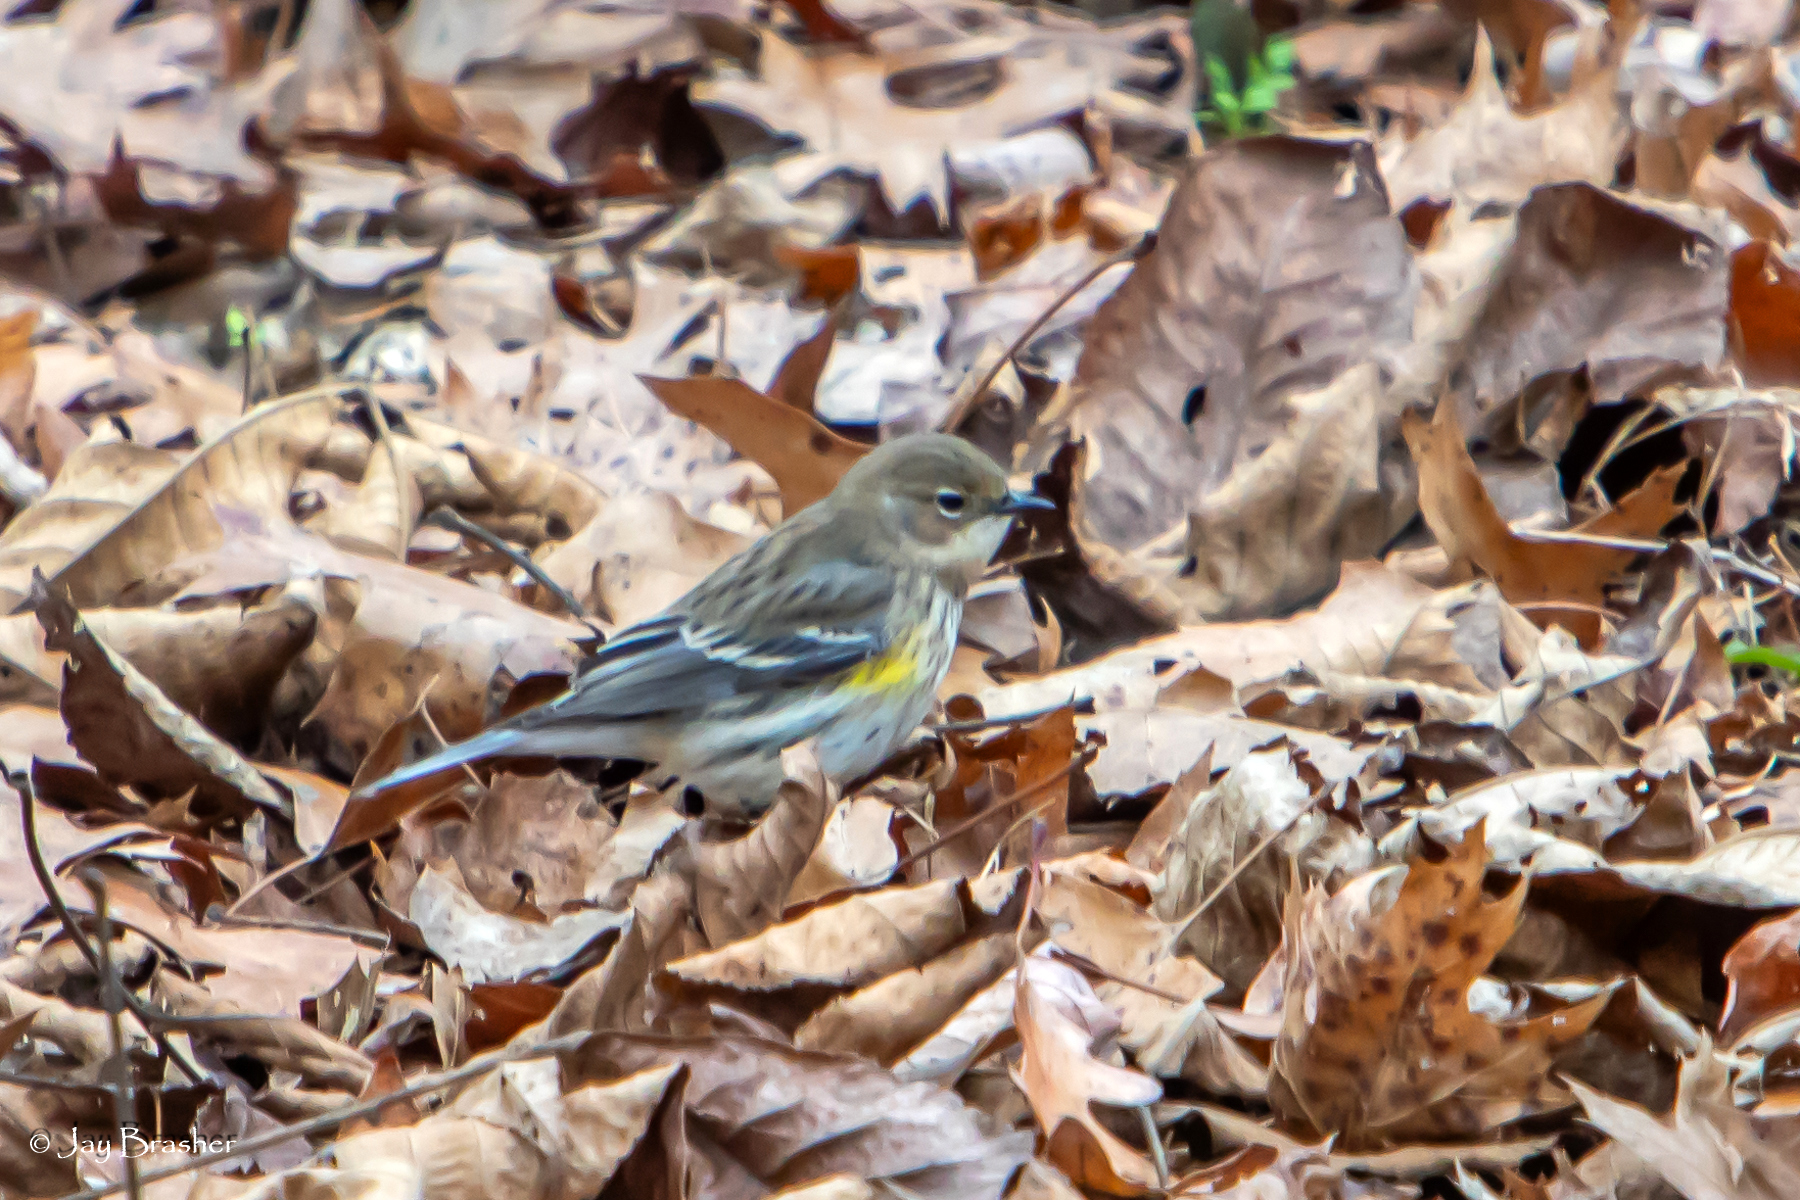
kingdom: Animalia
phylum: Chordata
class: Aves
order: Passeriformes
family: Parulidae
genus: Setophaga
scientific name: Setophaga coronata
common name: Myrtle warbler
